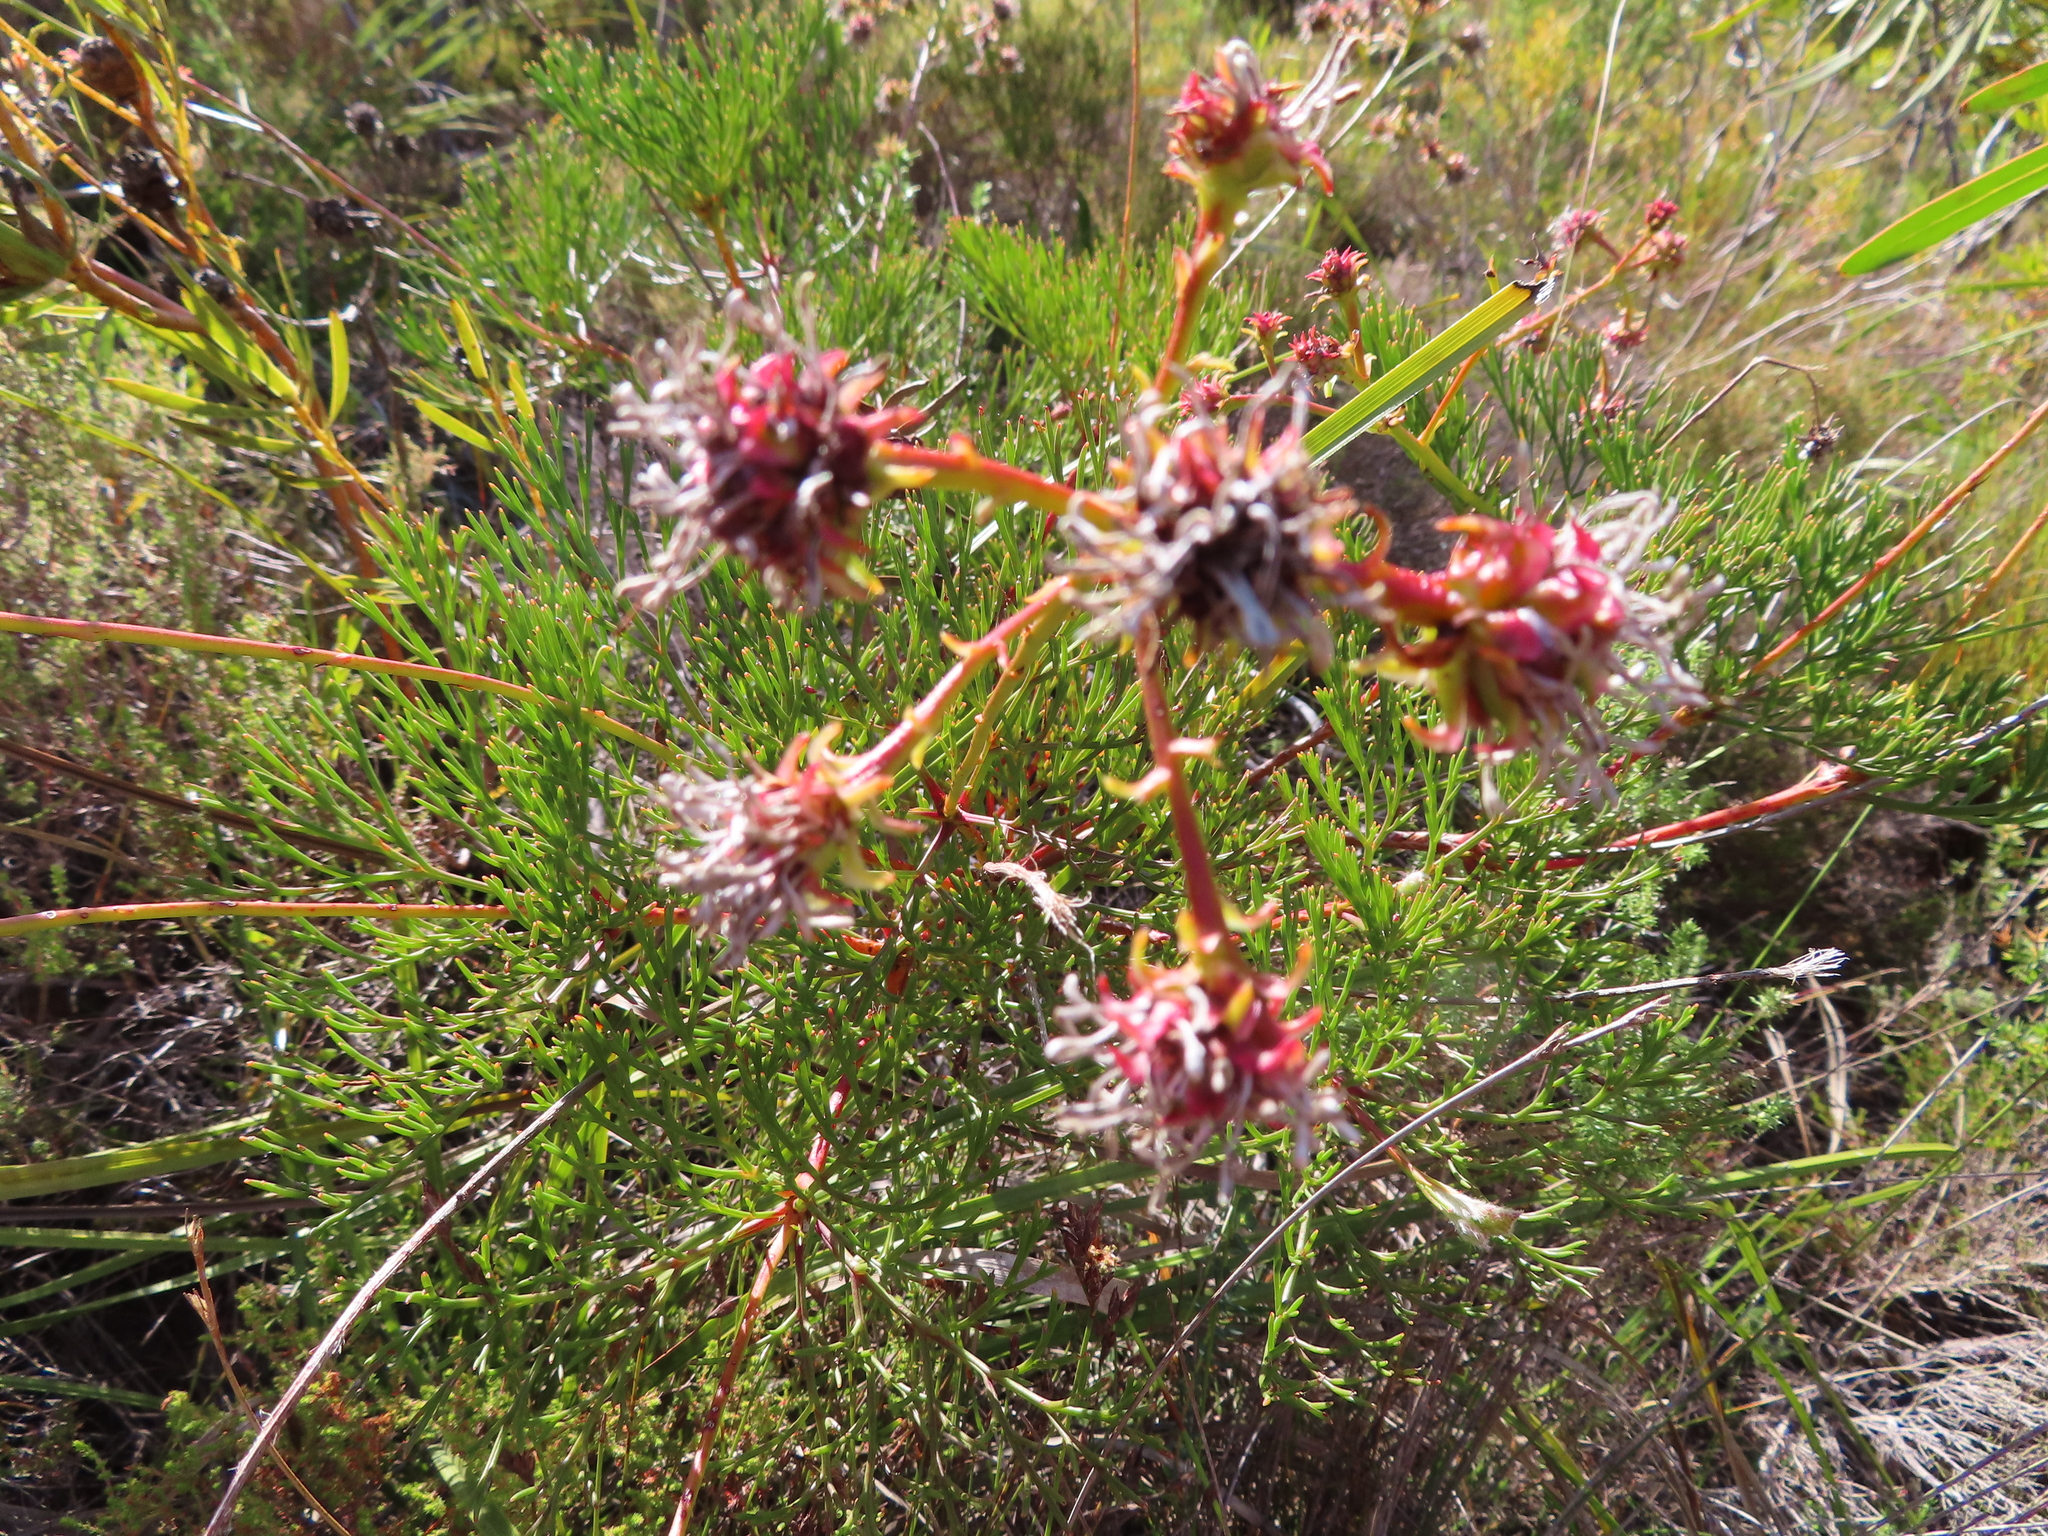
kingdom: Plantae
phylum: Tracheophyta
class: Magnoliopsida
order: Proteales
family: Proteaceae
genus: Serruria
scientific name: Serruria elongata
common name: Long-stalk spiderhead
